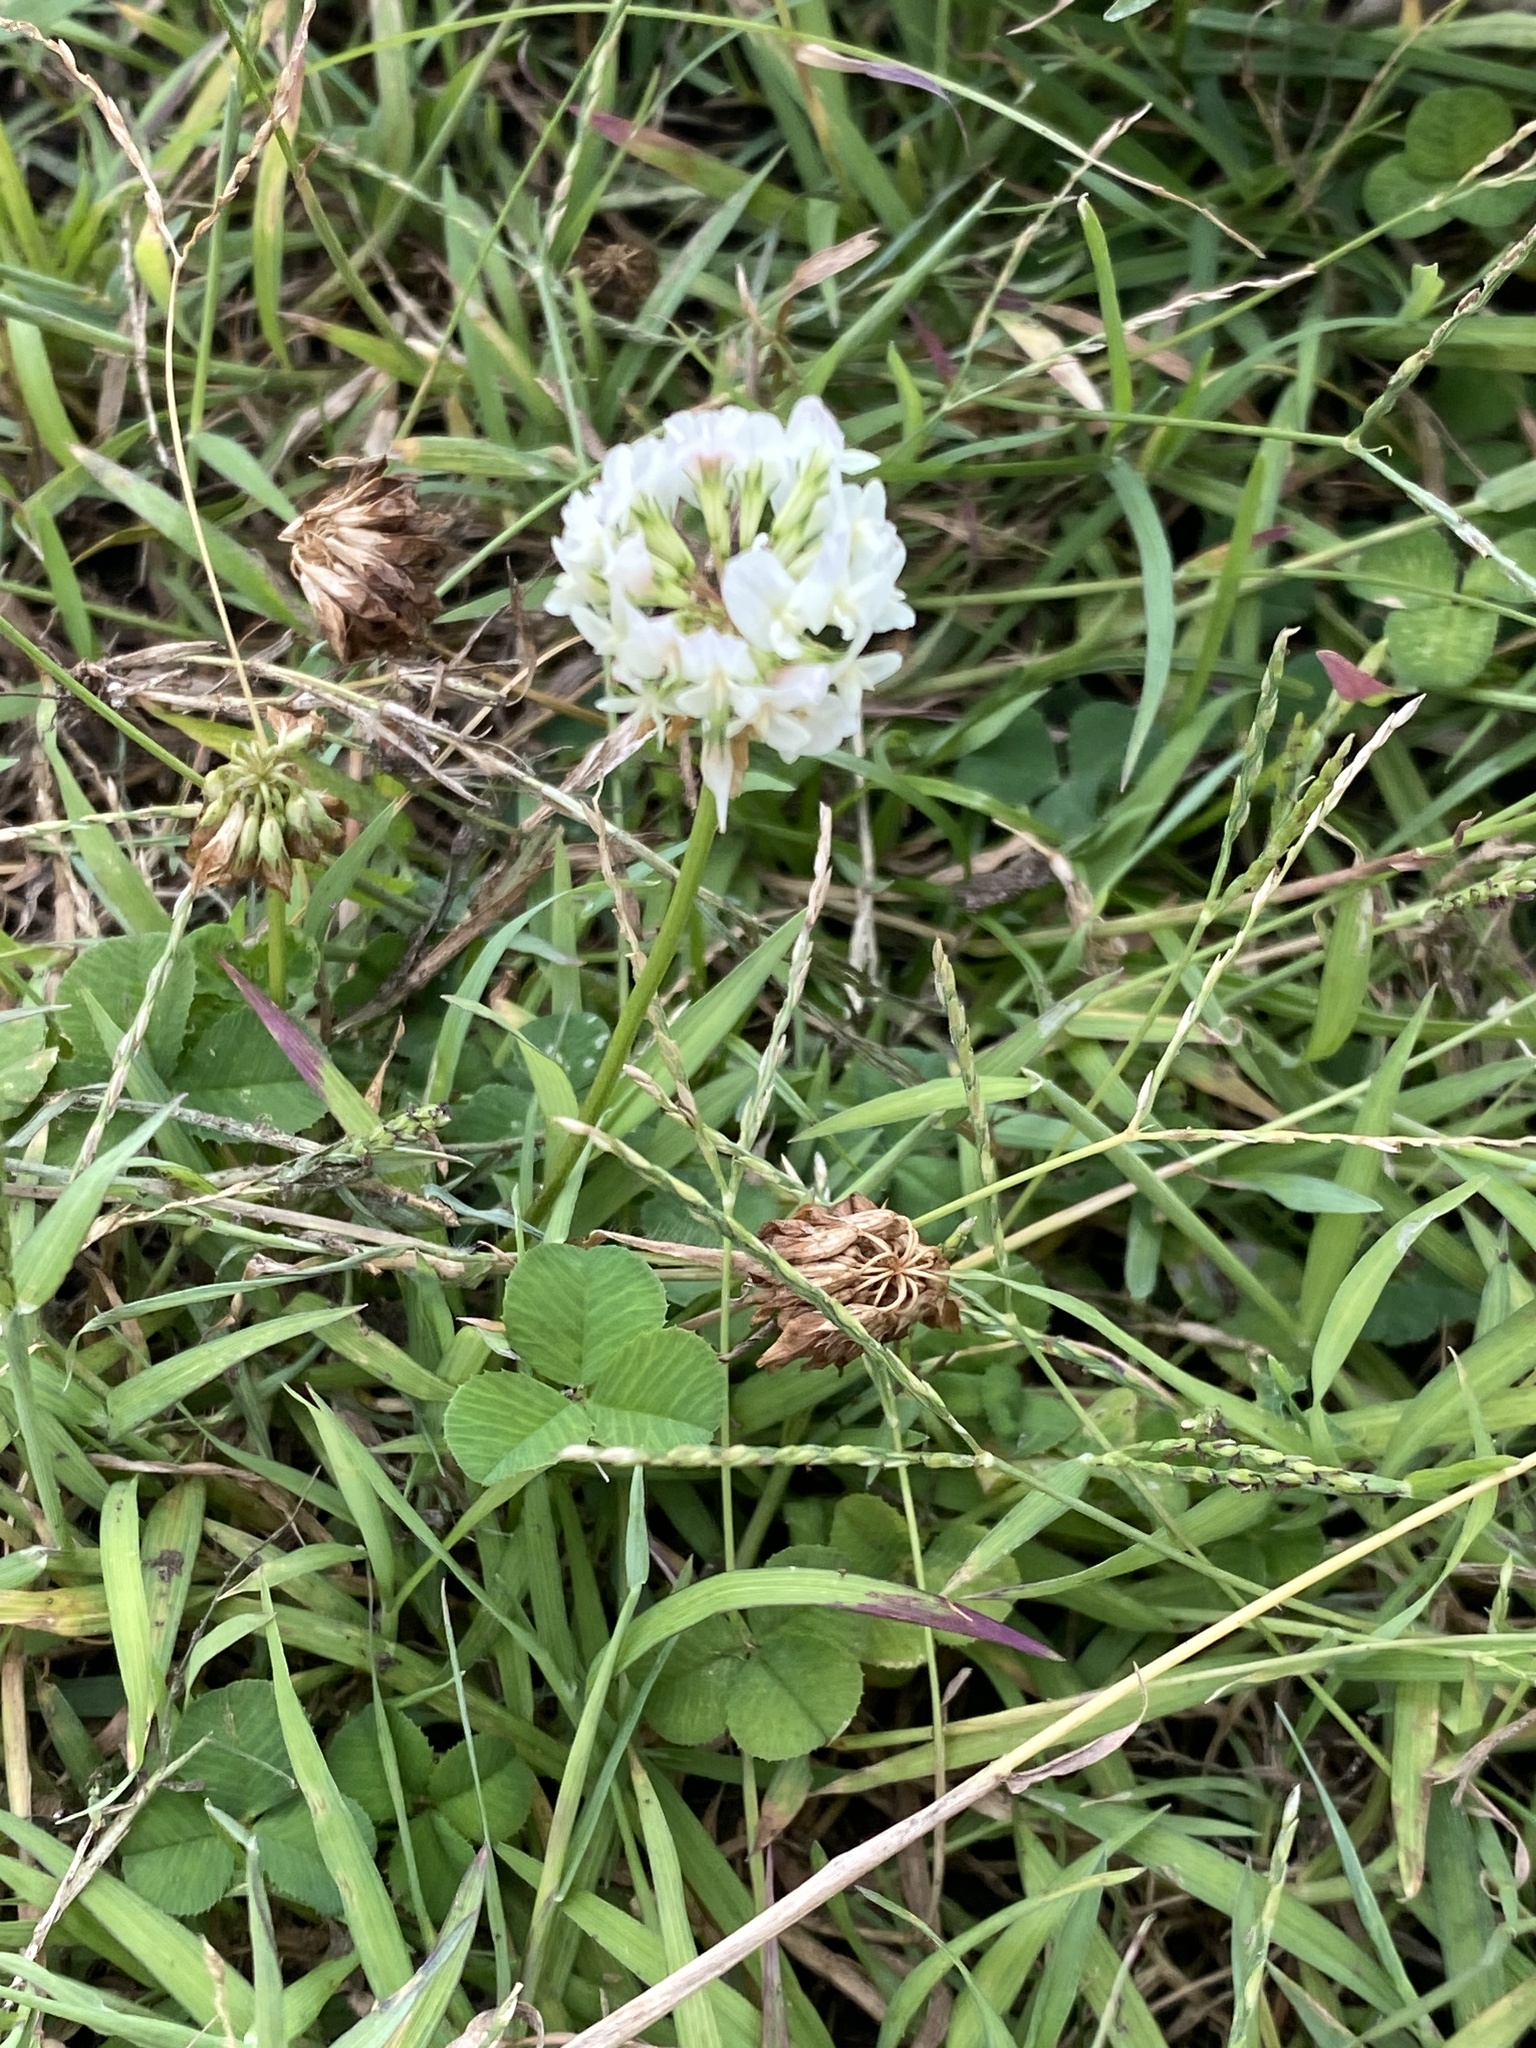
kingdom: Plantae
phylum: Tracheophyta
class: Magnoliopsida
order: Fabales
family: Fabaceae
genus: Trifolium
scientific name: Trifolium repens
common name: White clover
